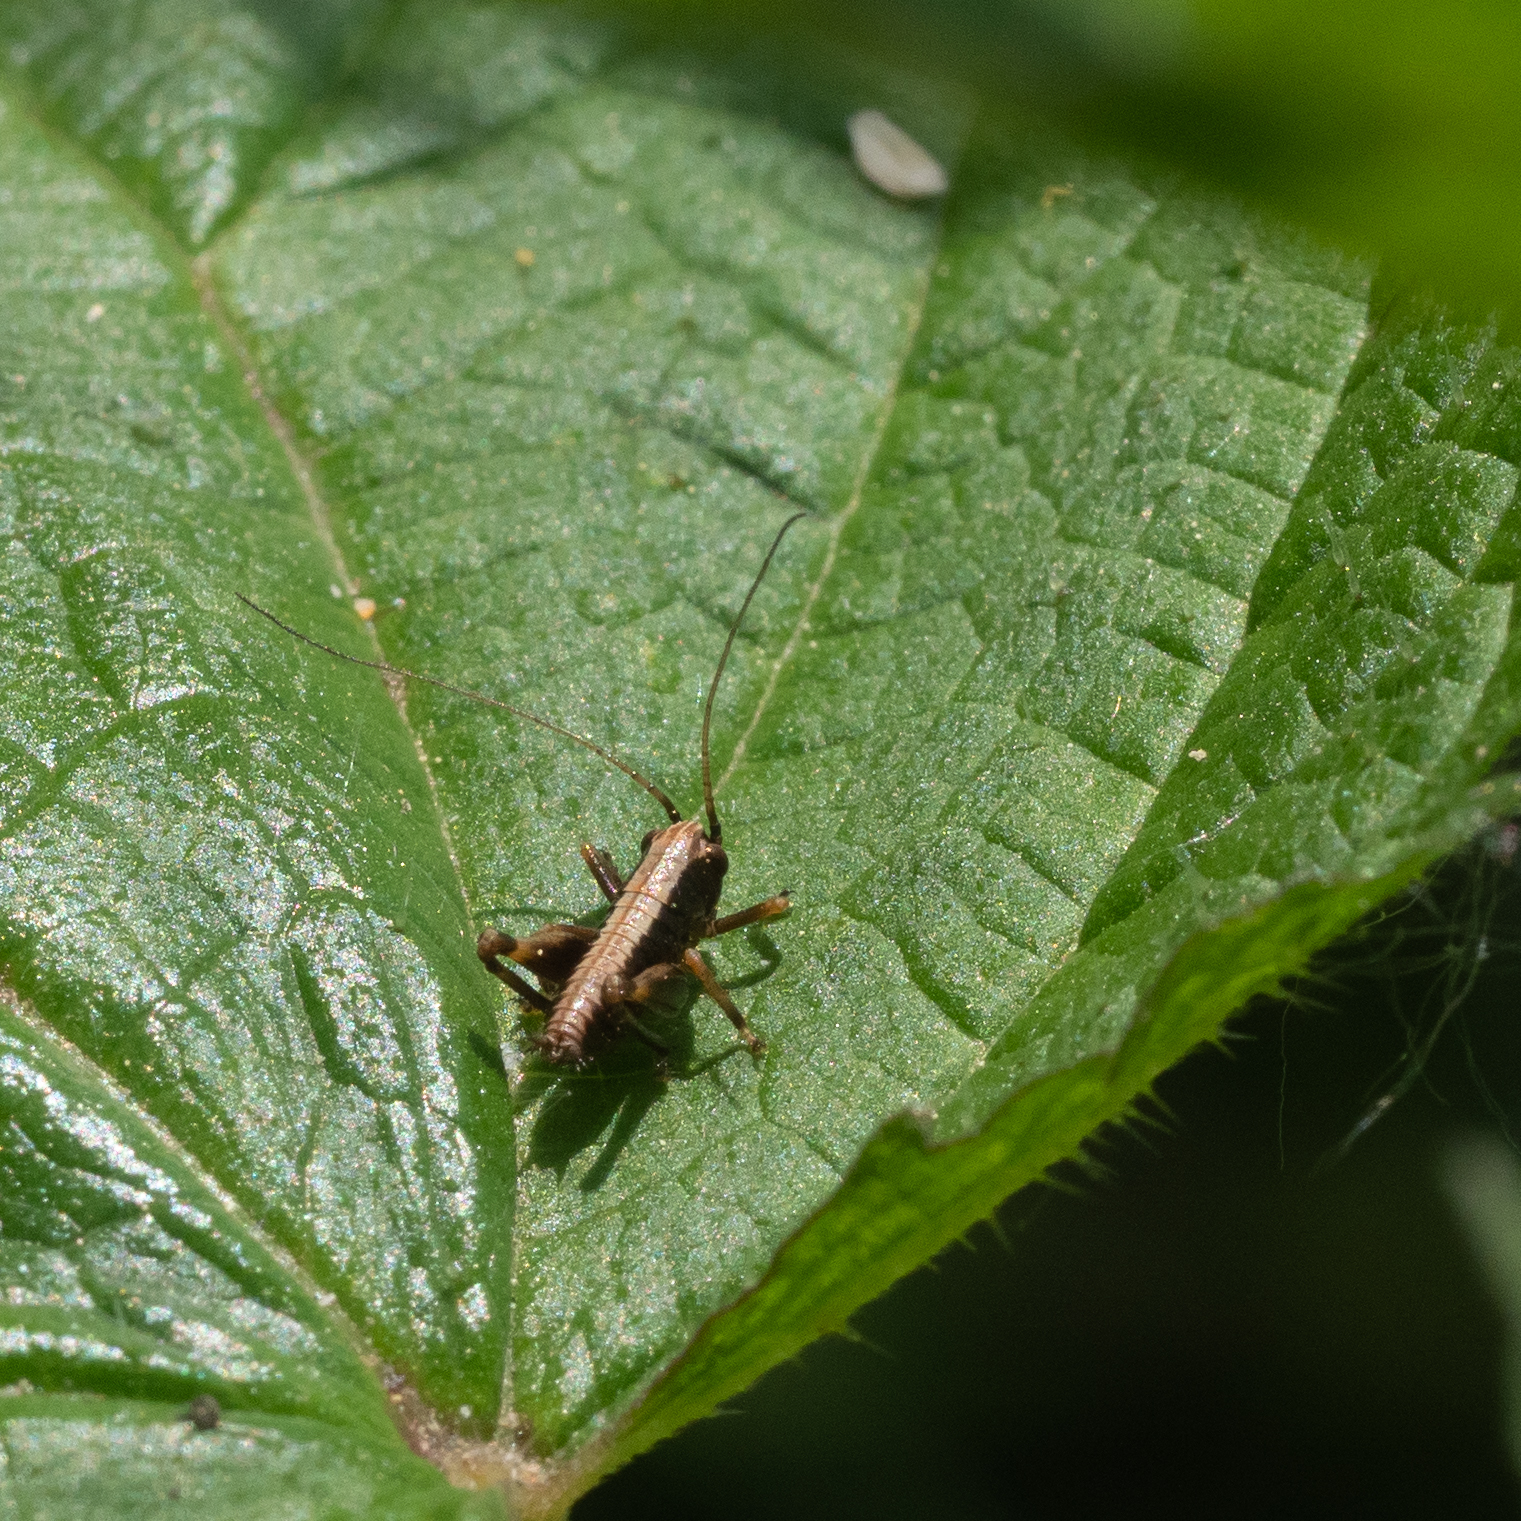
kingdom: Animalia
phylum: Arthropoda
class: Insecta
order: Orthoptera
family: Tettigoniidae
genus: Pholidoptera
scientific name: Pholidoptera griseoaptera
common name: Dark bush-cricket
